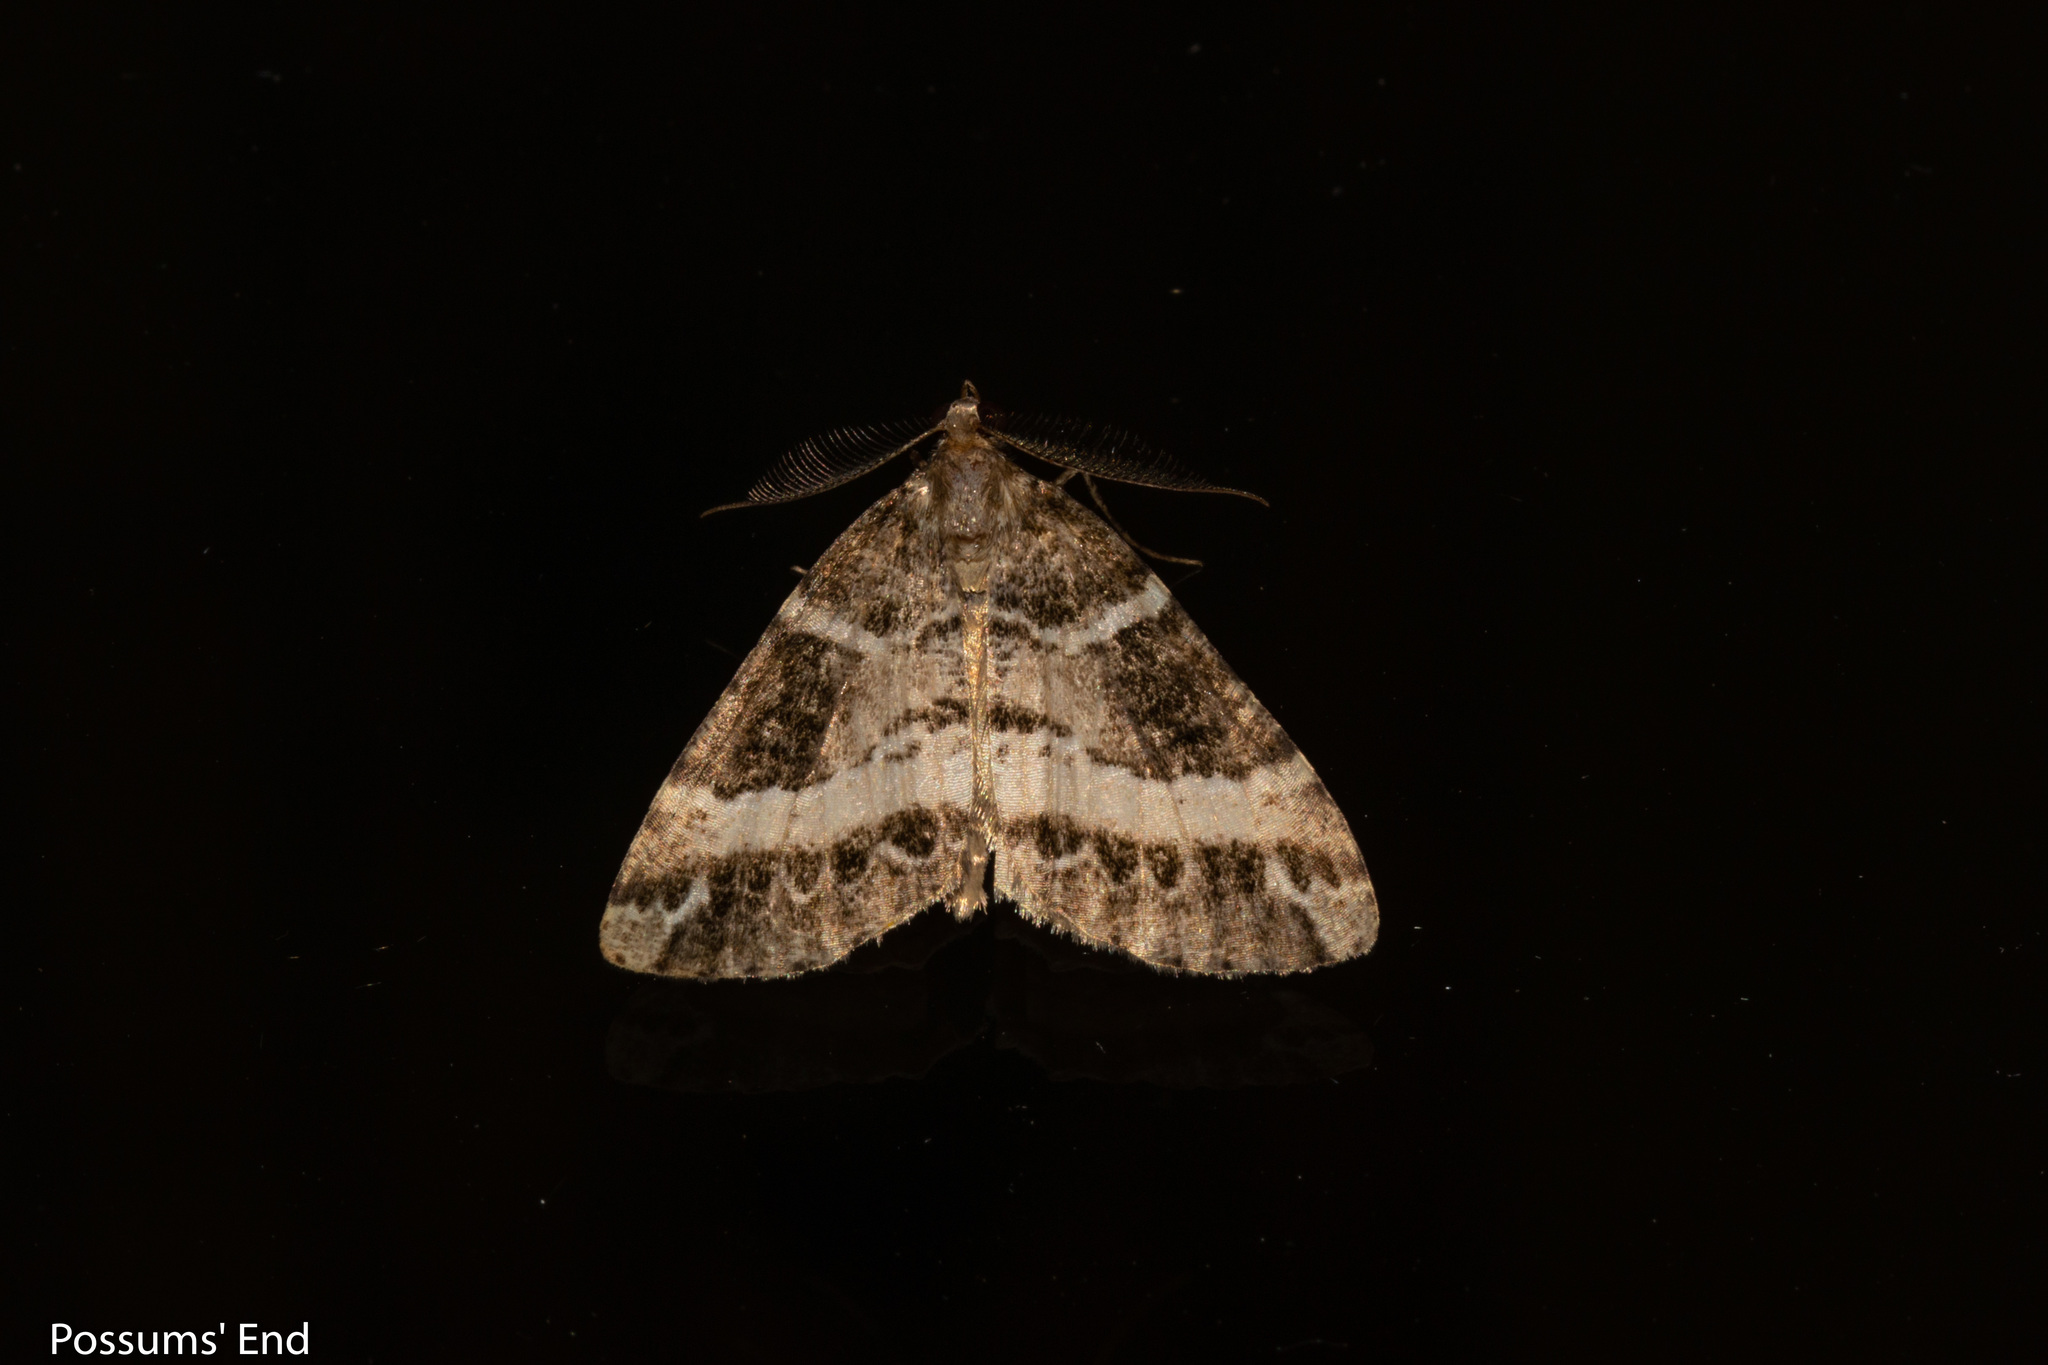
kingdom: Animalia
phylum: Arthropoda
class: Insecta
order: Lepidoptera
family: Geometridae
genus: Pseudocoremia
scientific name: Pseudocoremia
